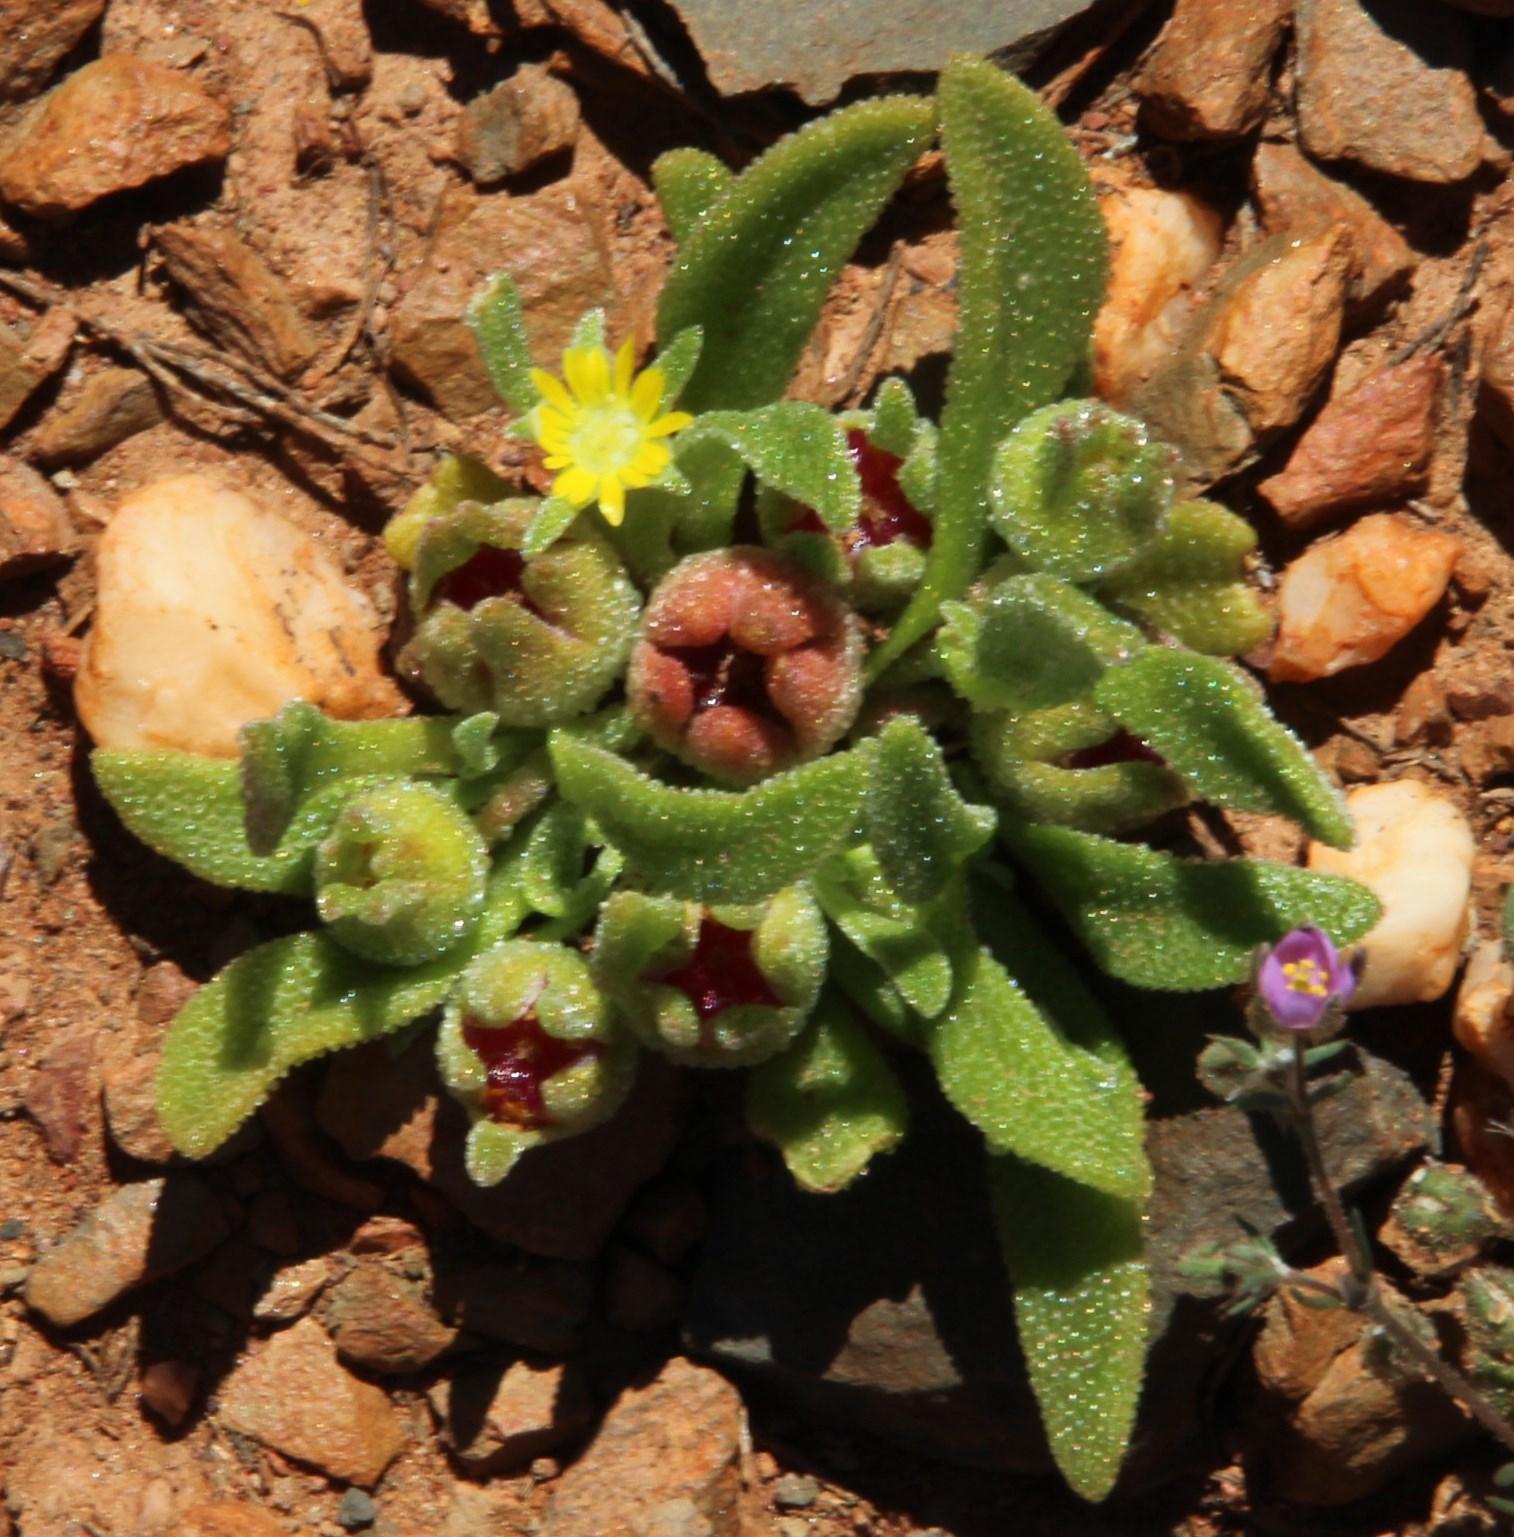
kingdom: Plantae
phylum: Tracheophyta
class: Magnoliopsida
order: Caryophyllales
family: Aizoaceae
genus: Cleretum
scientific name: Cleretum papulosum
